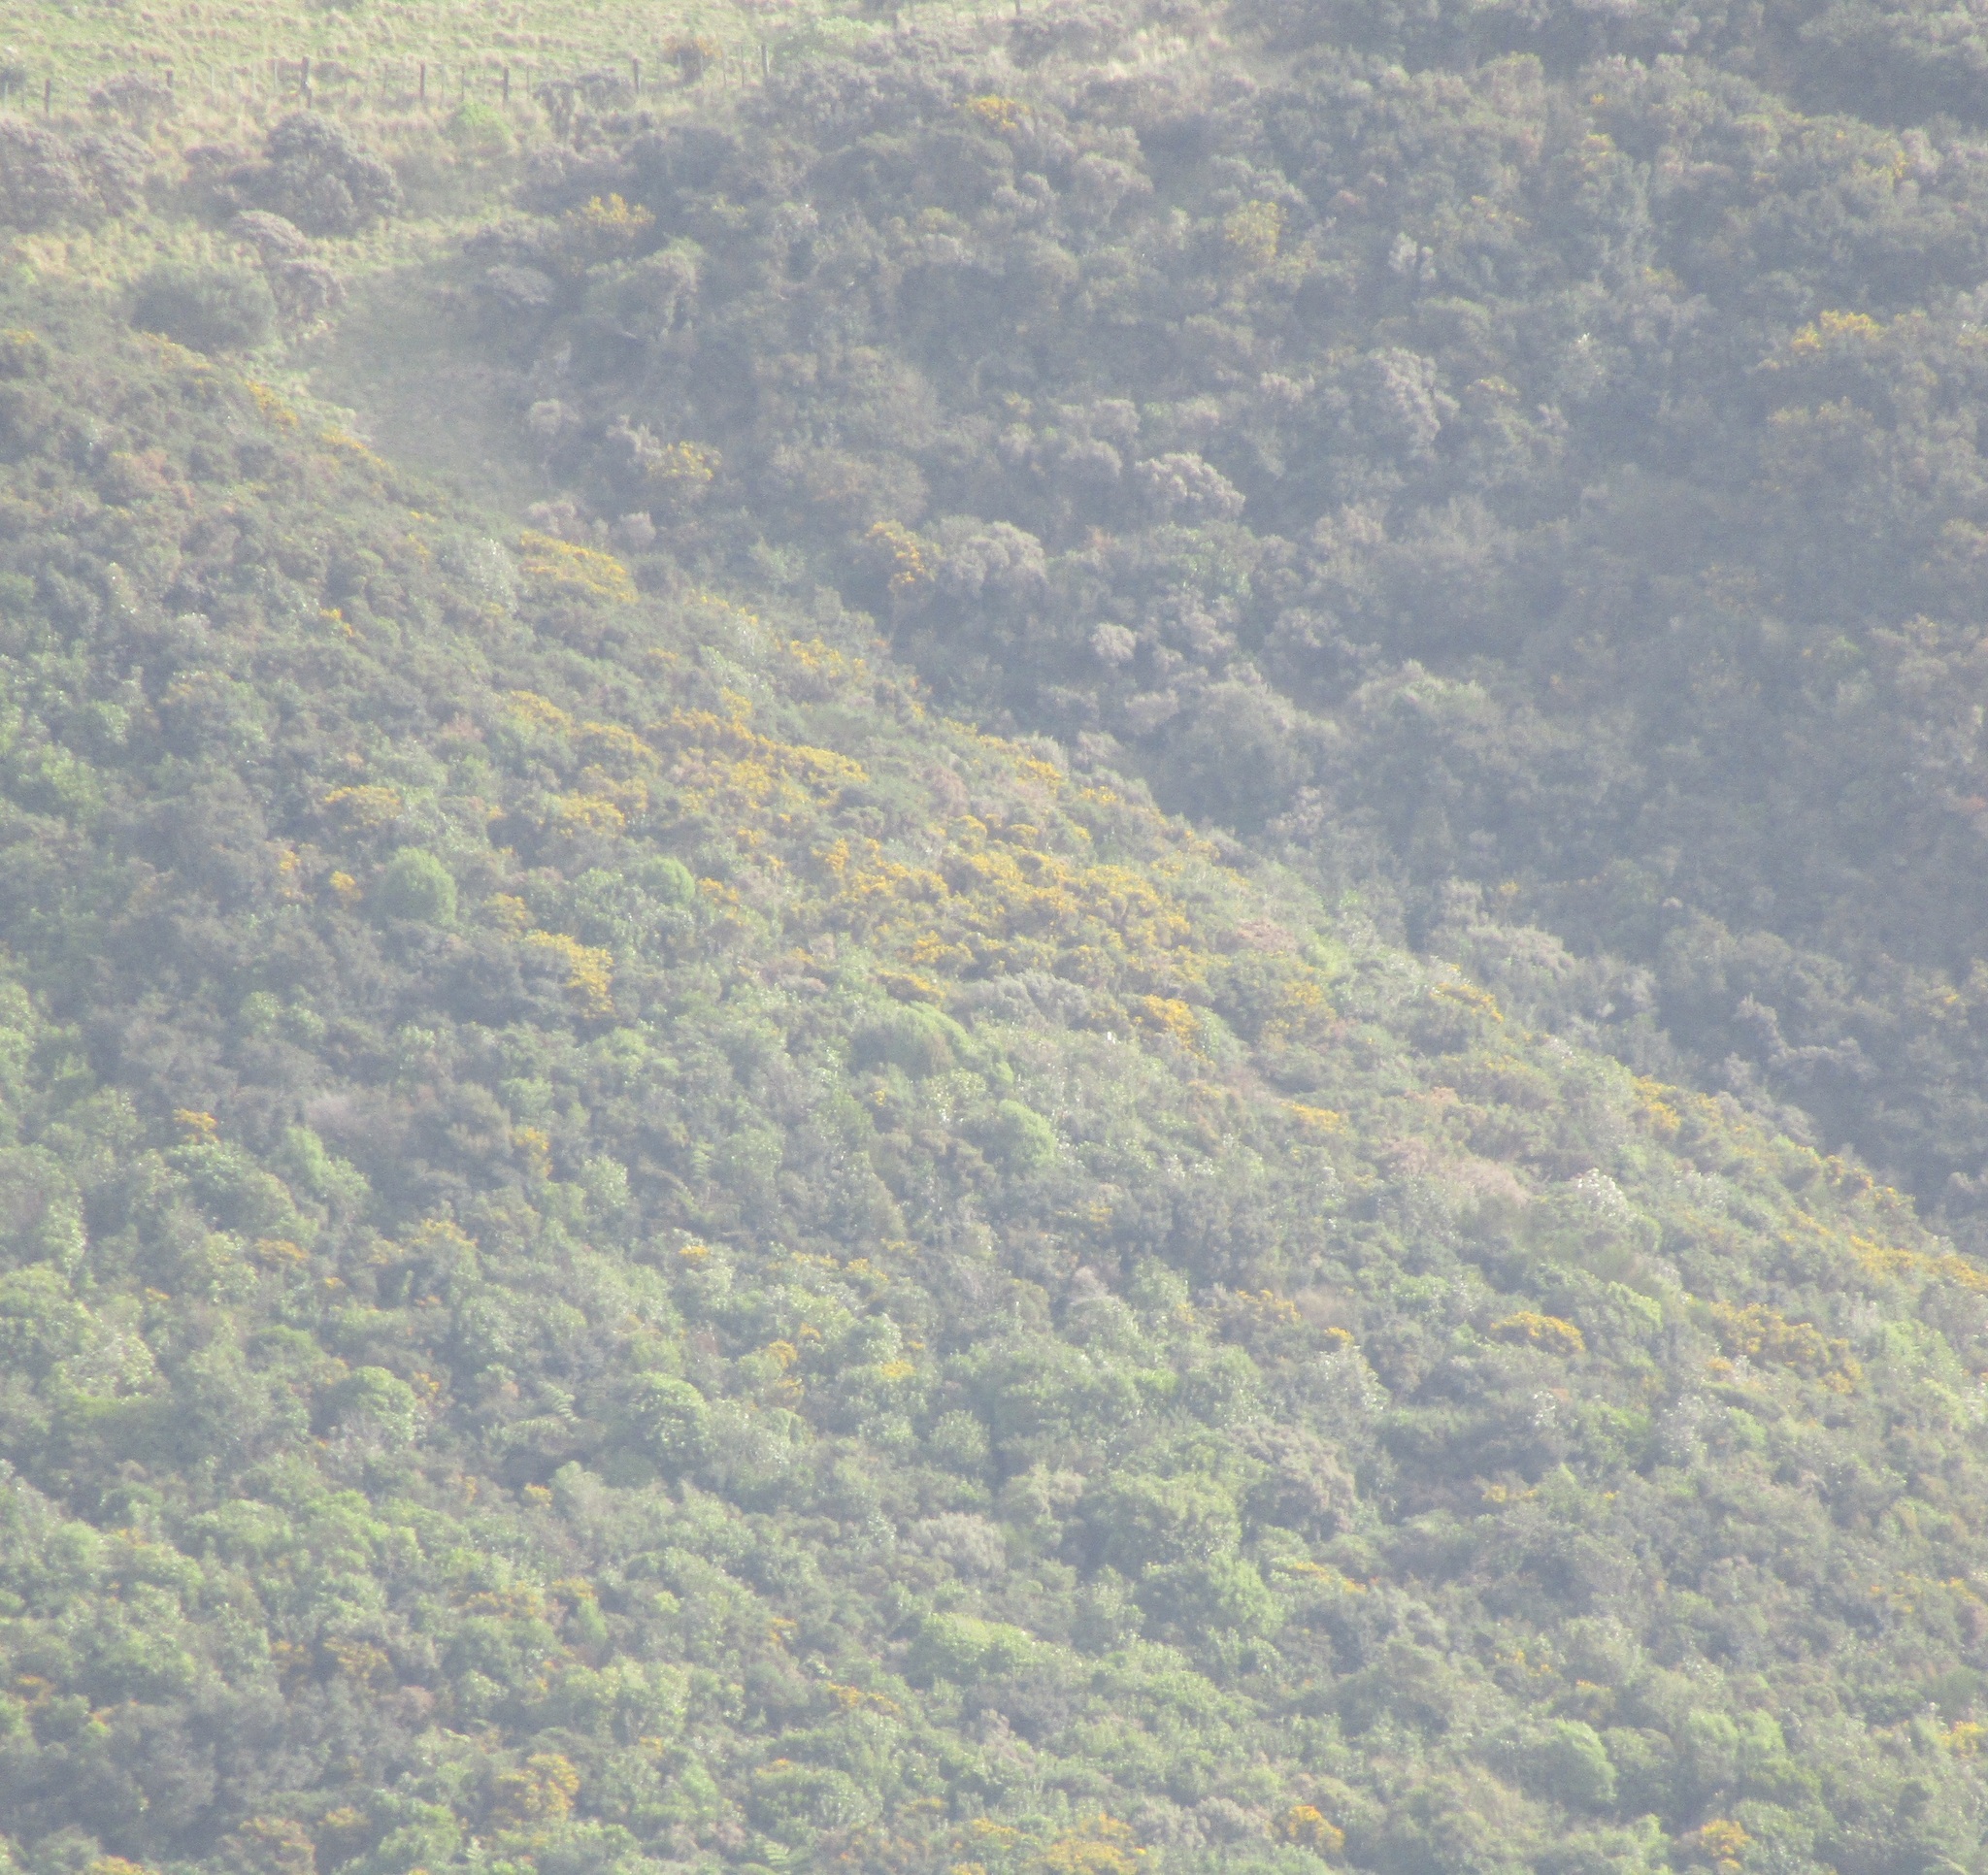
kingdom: Plantae
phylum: Tracheophyta
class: Magnoliopsida
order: Fabales
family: Fabaceae
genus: Ulex
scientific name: Ulex europaeus
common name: Common gorse
